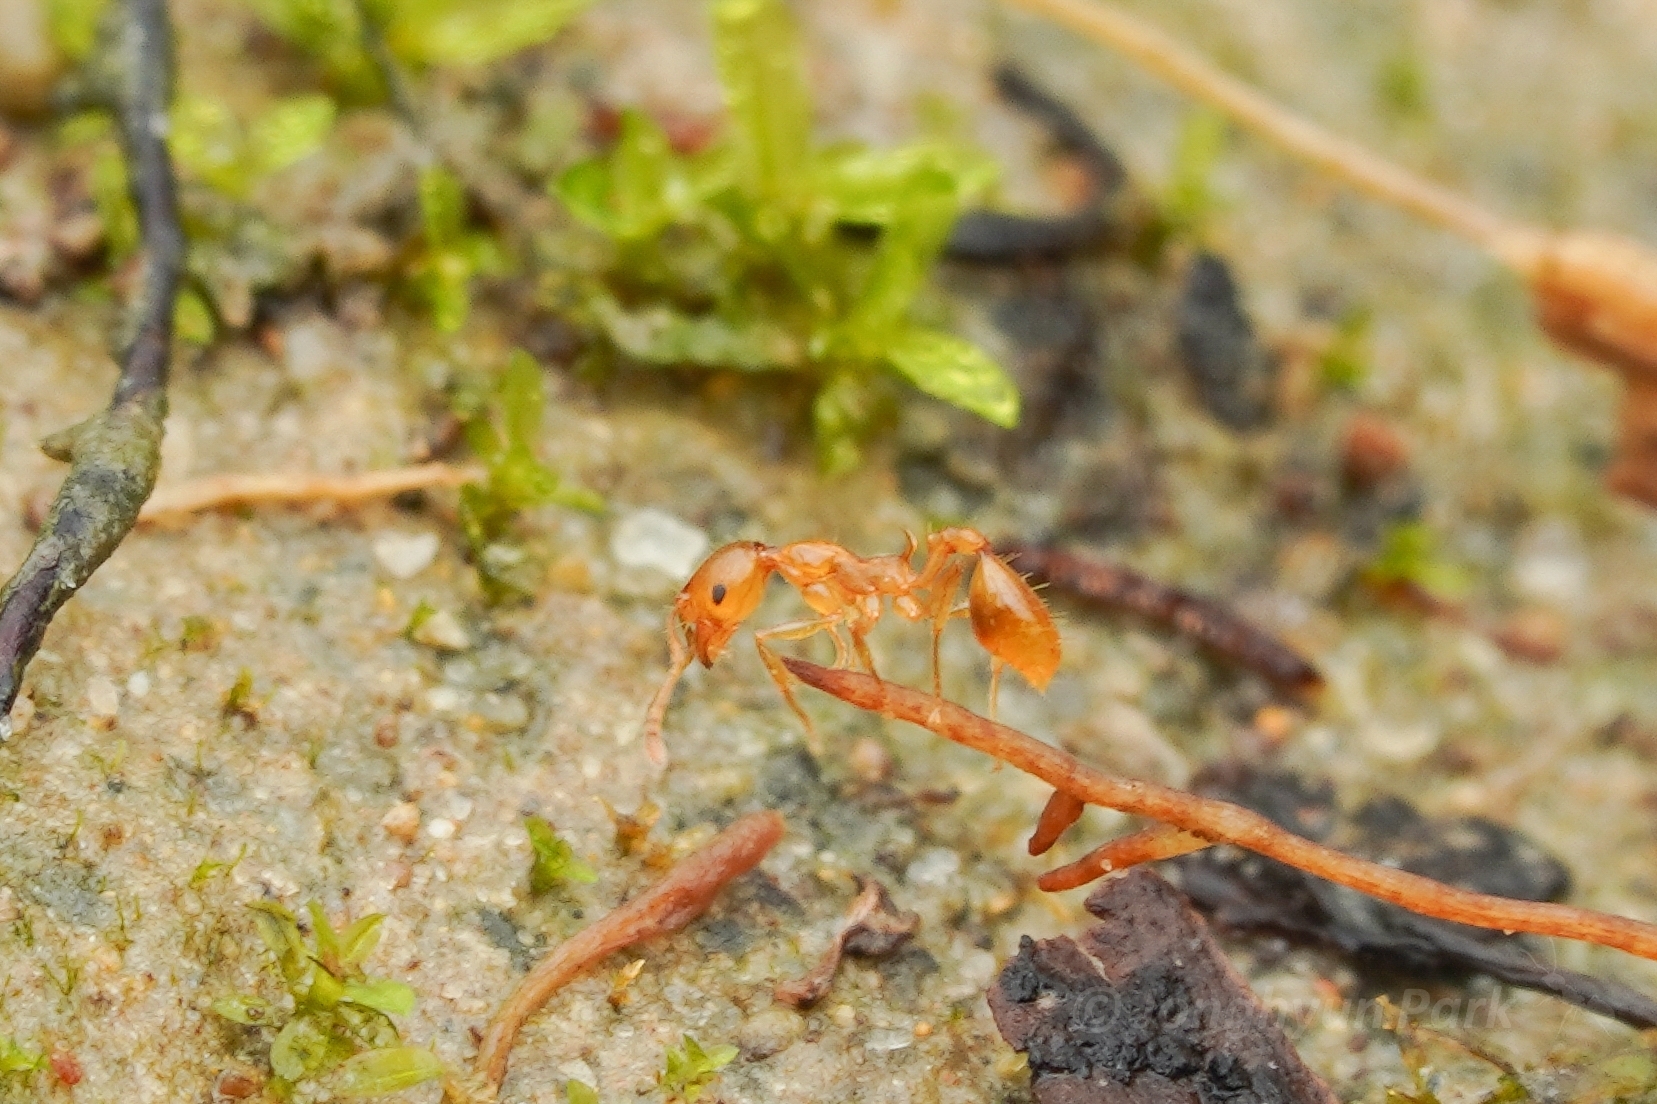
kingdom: Animalia
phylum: Arthropoda
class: Insecta
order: Hymenoptera
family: Formicidae
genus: Recurvidris
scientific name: Recurvidris browni
